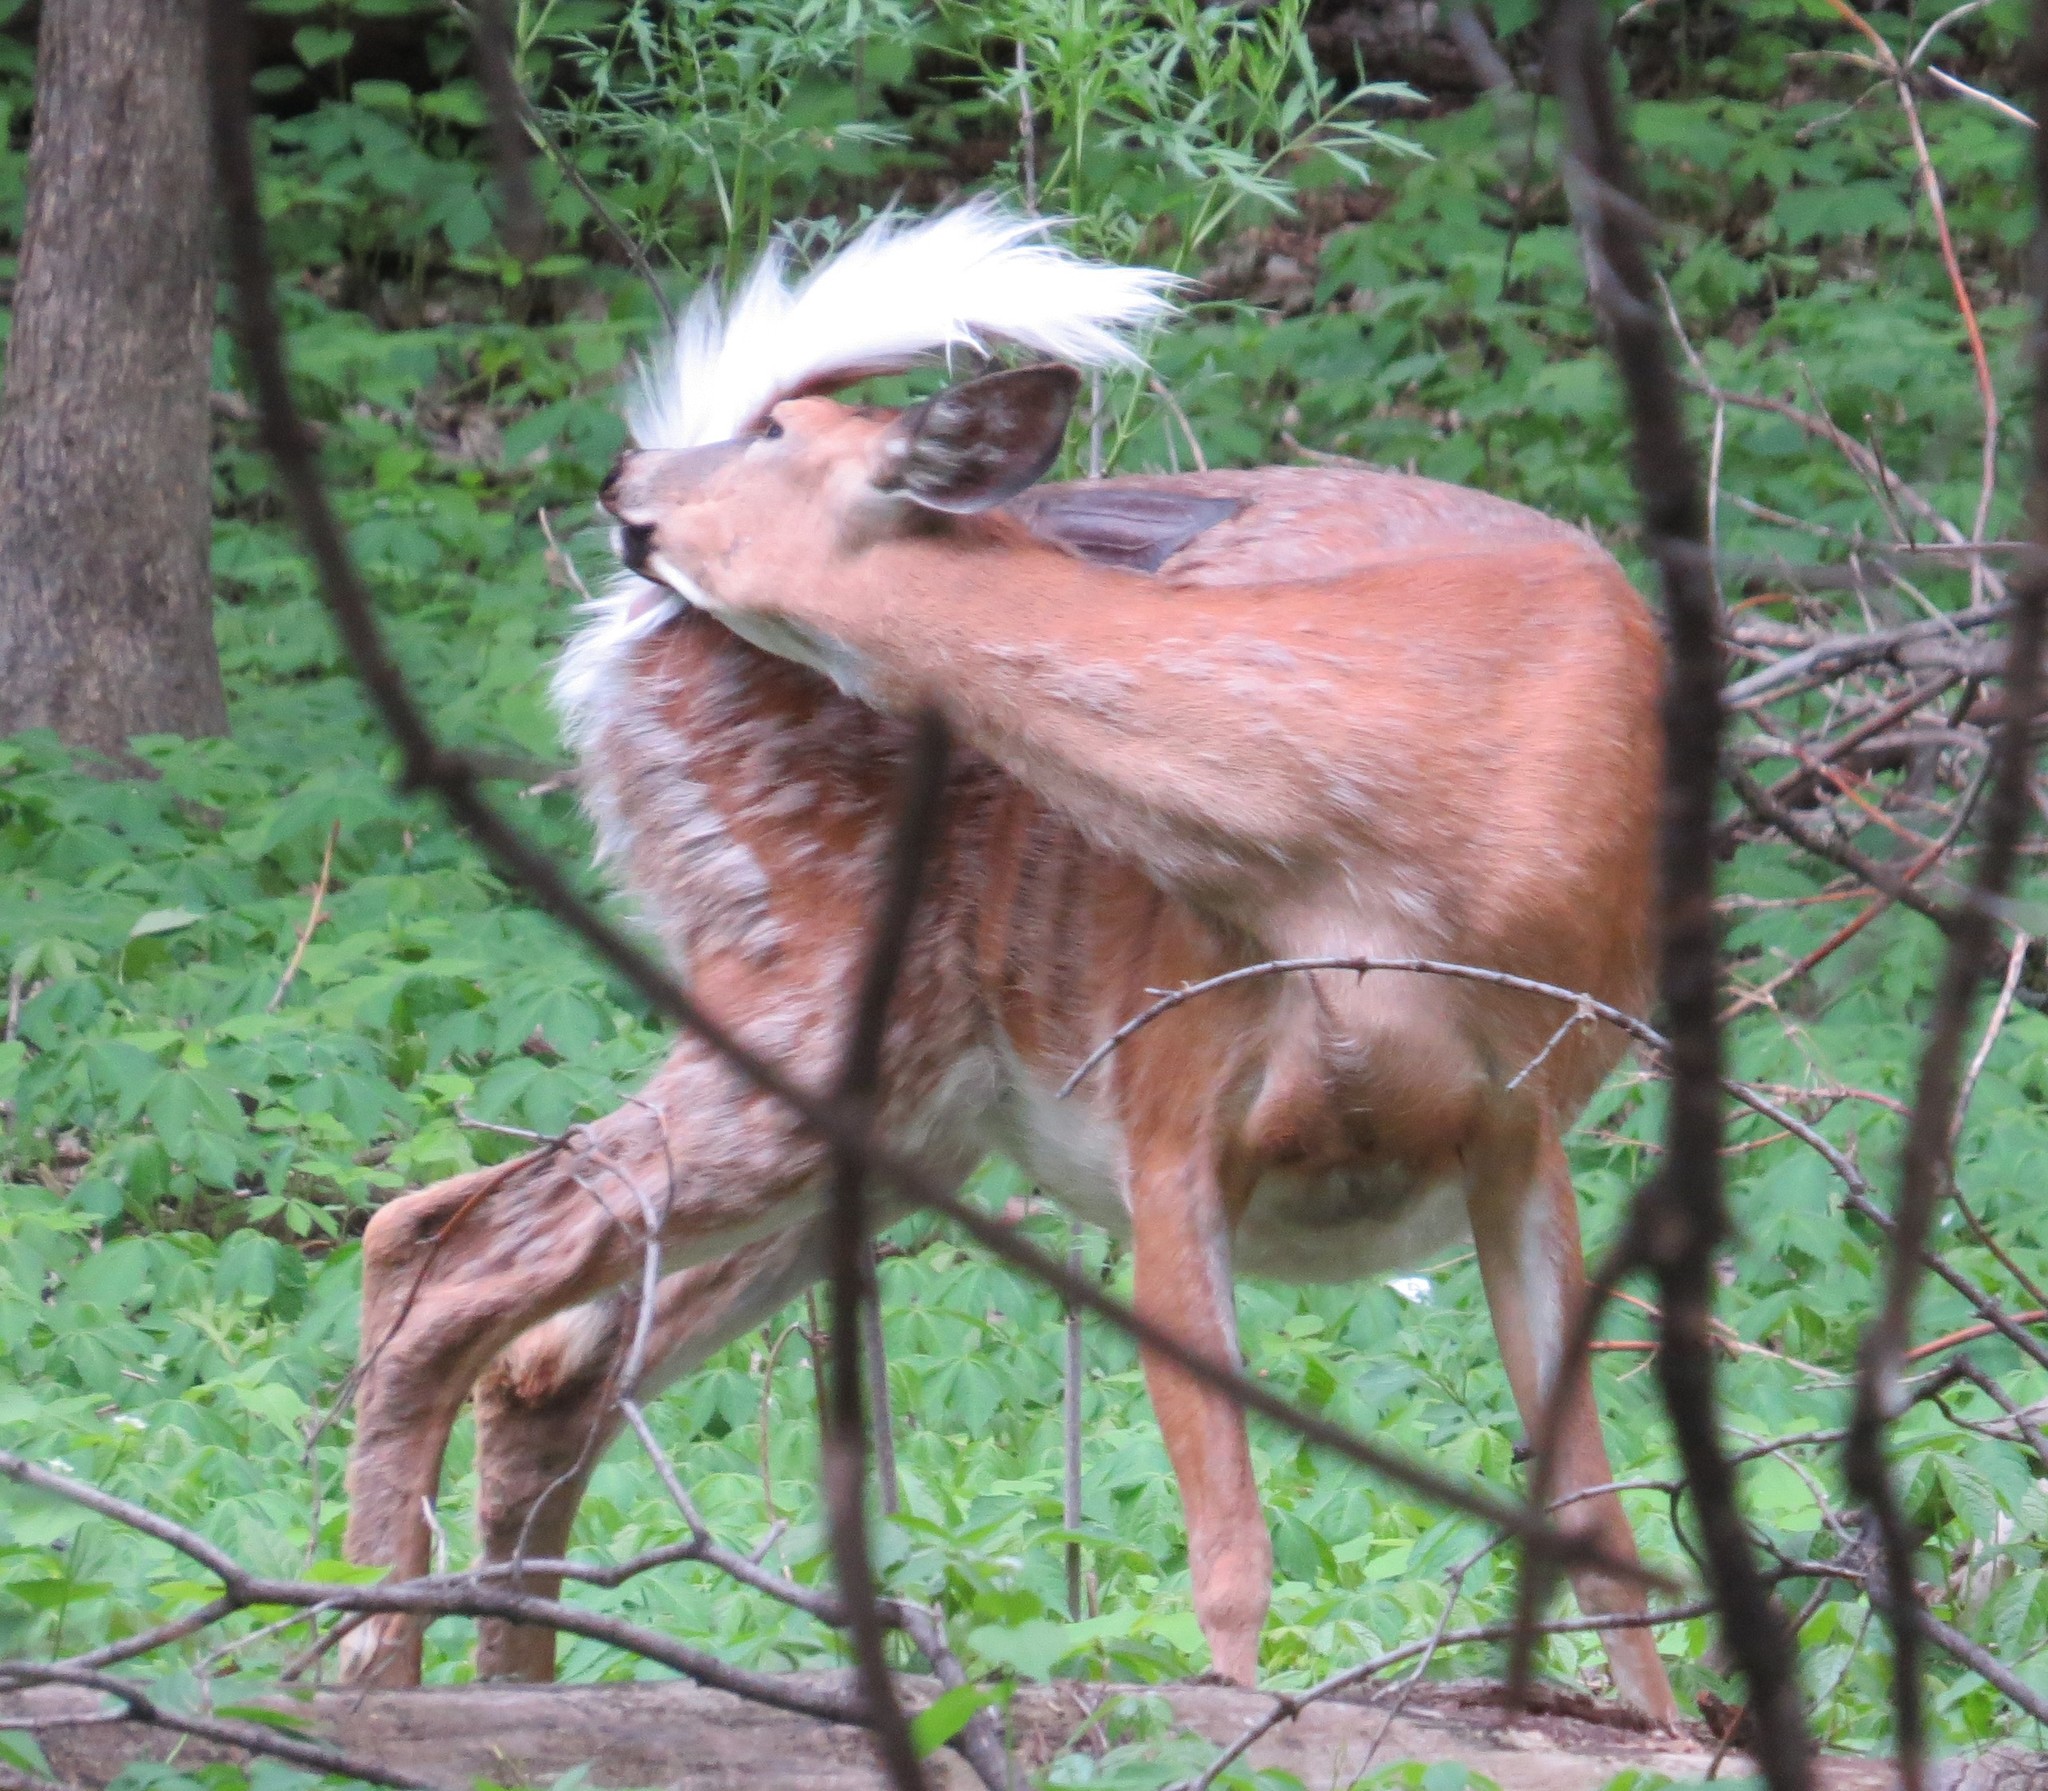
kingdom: Animalia
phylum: Chordata
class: Mammalia
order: Artiodactyla
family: Cervidae
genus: Odocoileus
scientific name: Odocoileus virginianus
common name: White-tailed deer
